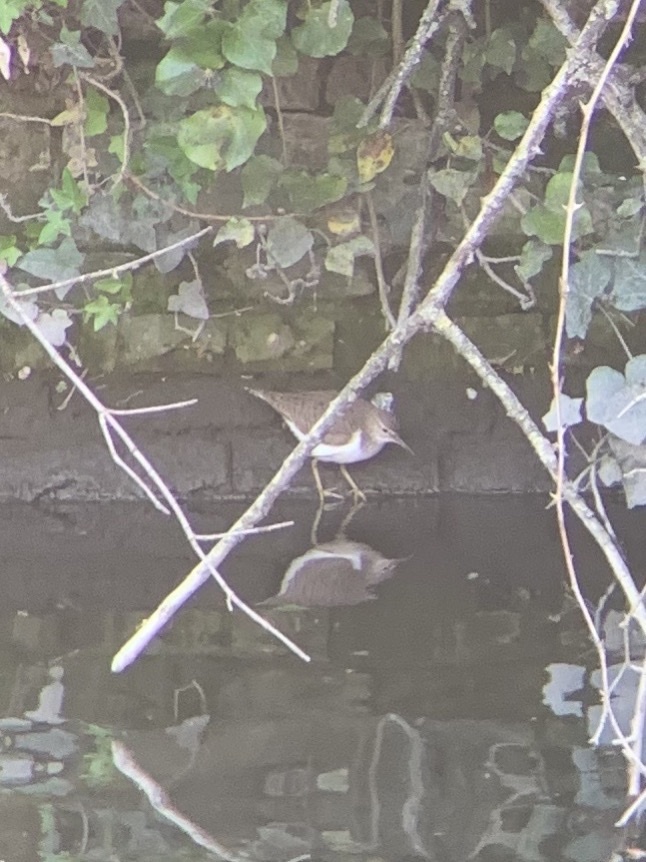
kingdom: Animalia
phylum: Chordata
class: Aves
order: Charadriiformes
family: Scolopacidae
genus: Actitis
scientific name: Actitis hypoleucos
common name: Common sandpiper
